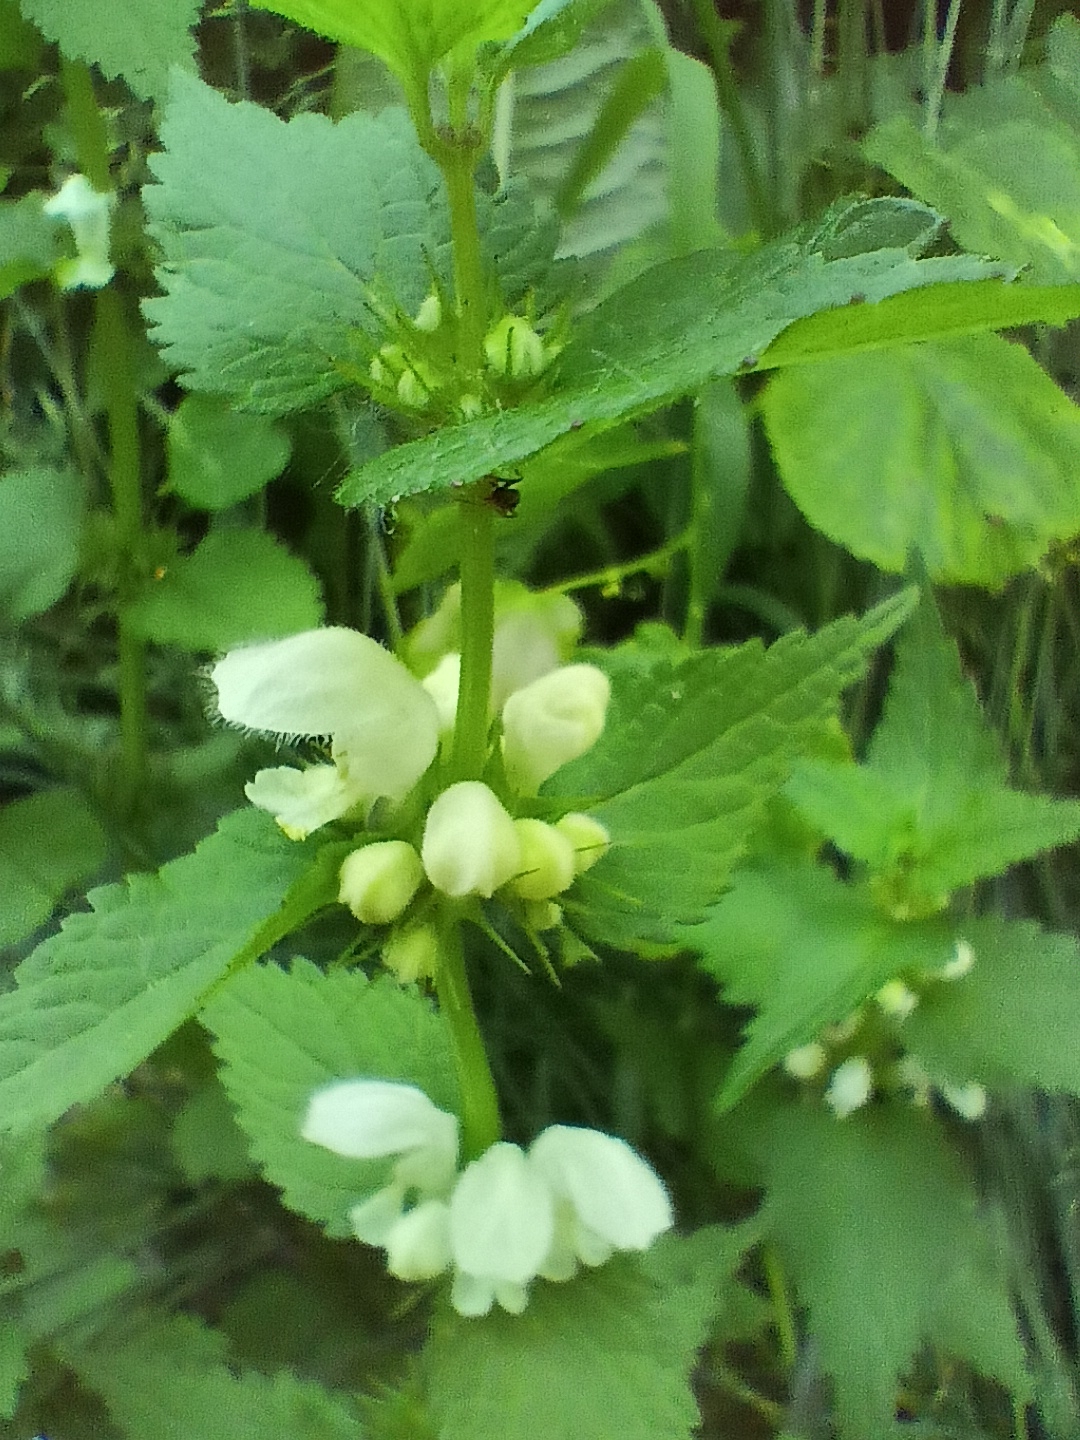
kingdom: Plantae
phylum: Tracheophyta
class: Magnoliopsida
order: Lamiales
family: Lamiaceae
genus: Lamium
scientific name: Lamium album
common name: White dead-nettle
